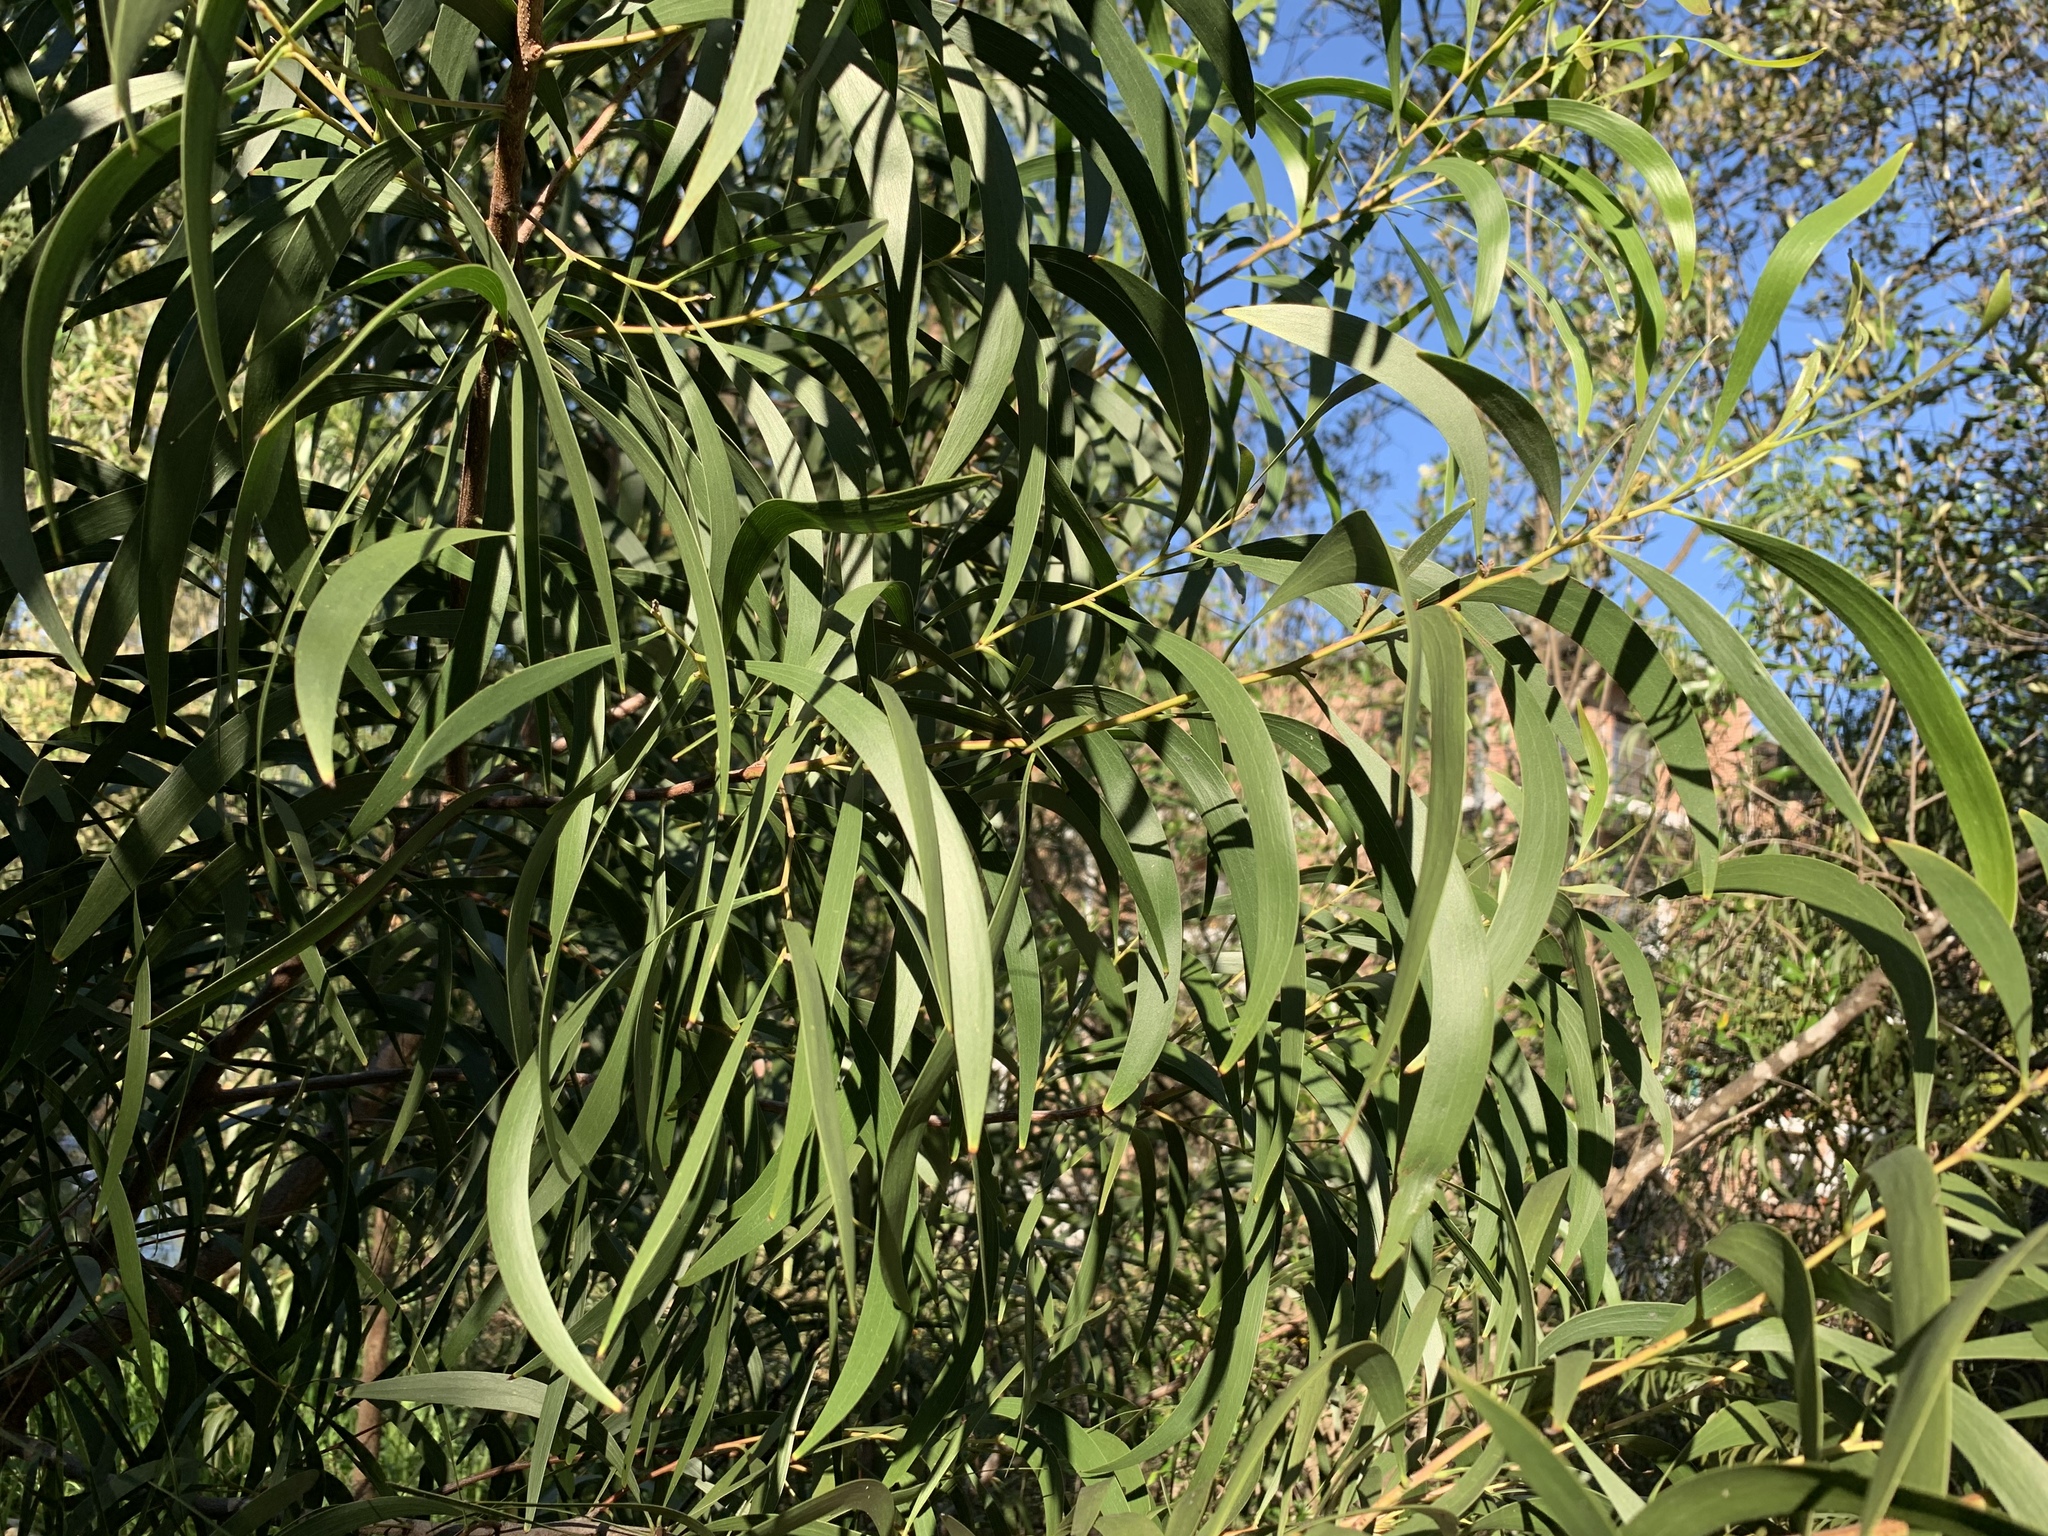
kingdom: Plantae
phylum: Tracheophyta
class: Magnoliopsida
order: Fabales
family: Fabaceae
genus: Acacia
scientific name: Acacia implexa
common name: Black wattle
